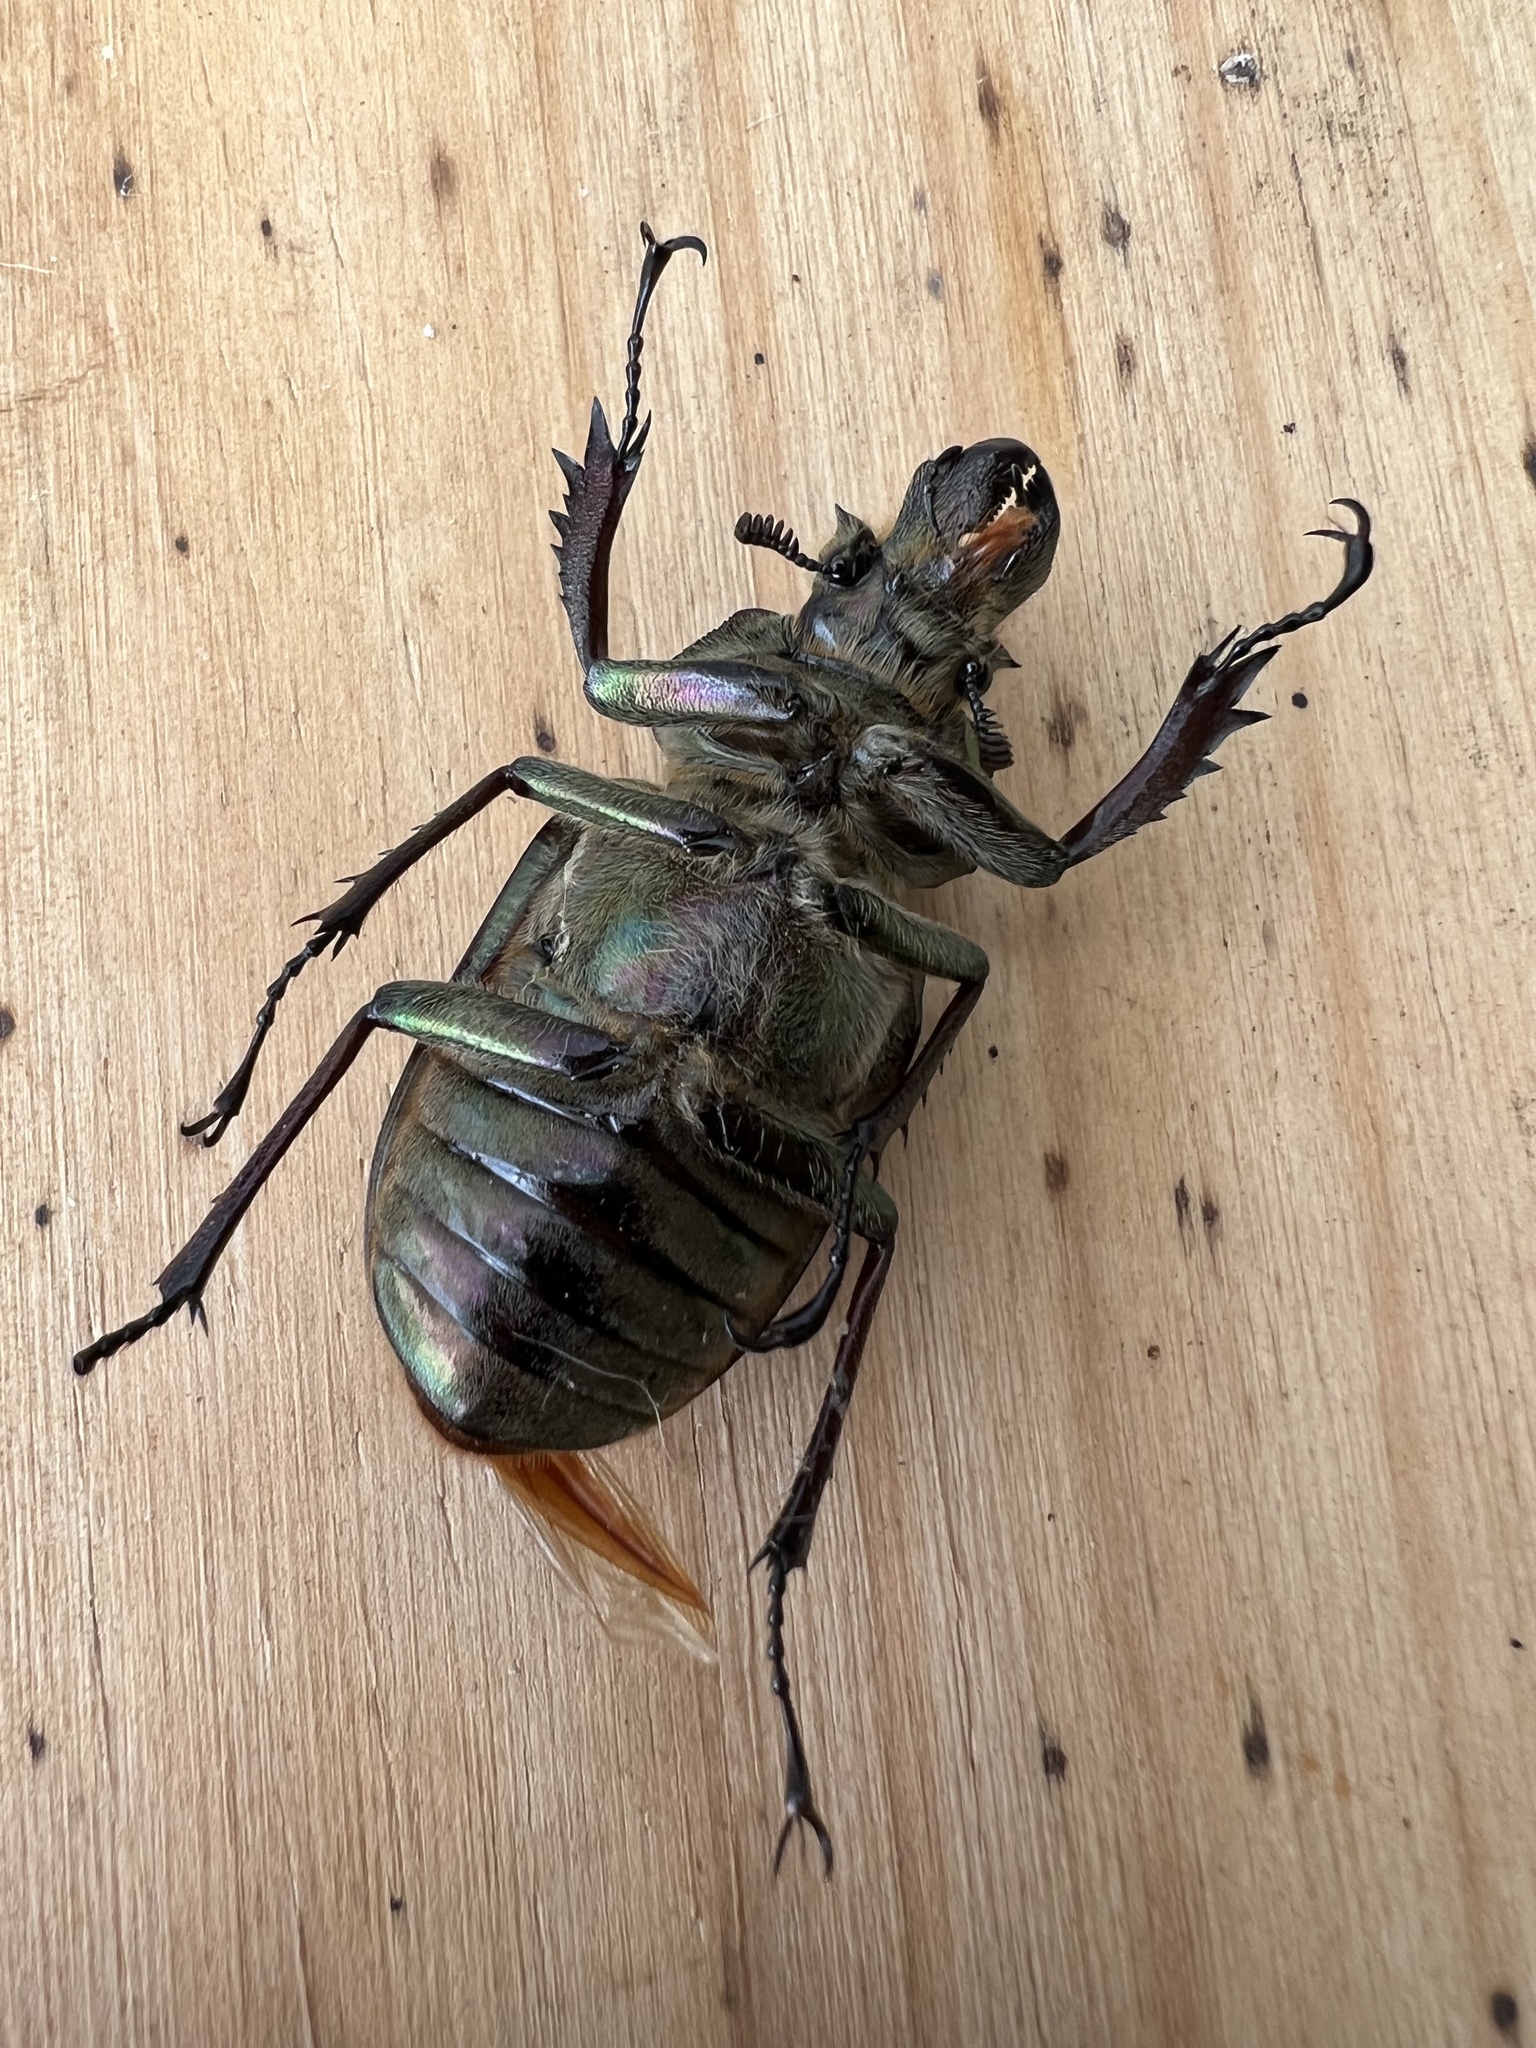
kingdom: Animalia
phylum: Arthropoda
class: Insecta
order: Coleoptera
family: Lucanidae
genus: Sphaenognathus
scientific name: Sphaenognathus feisthamelii
